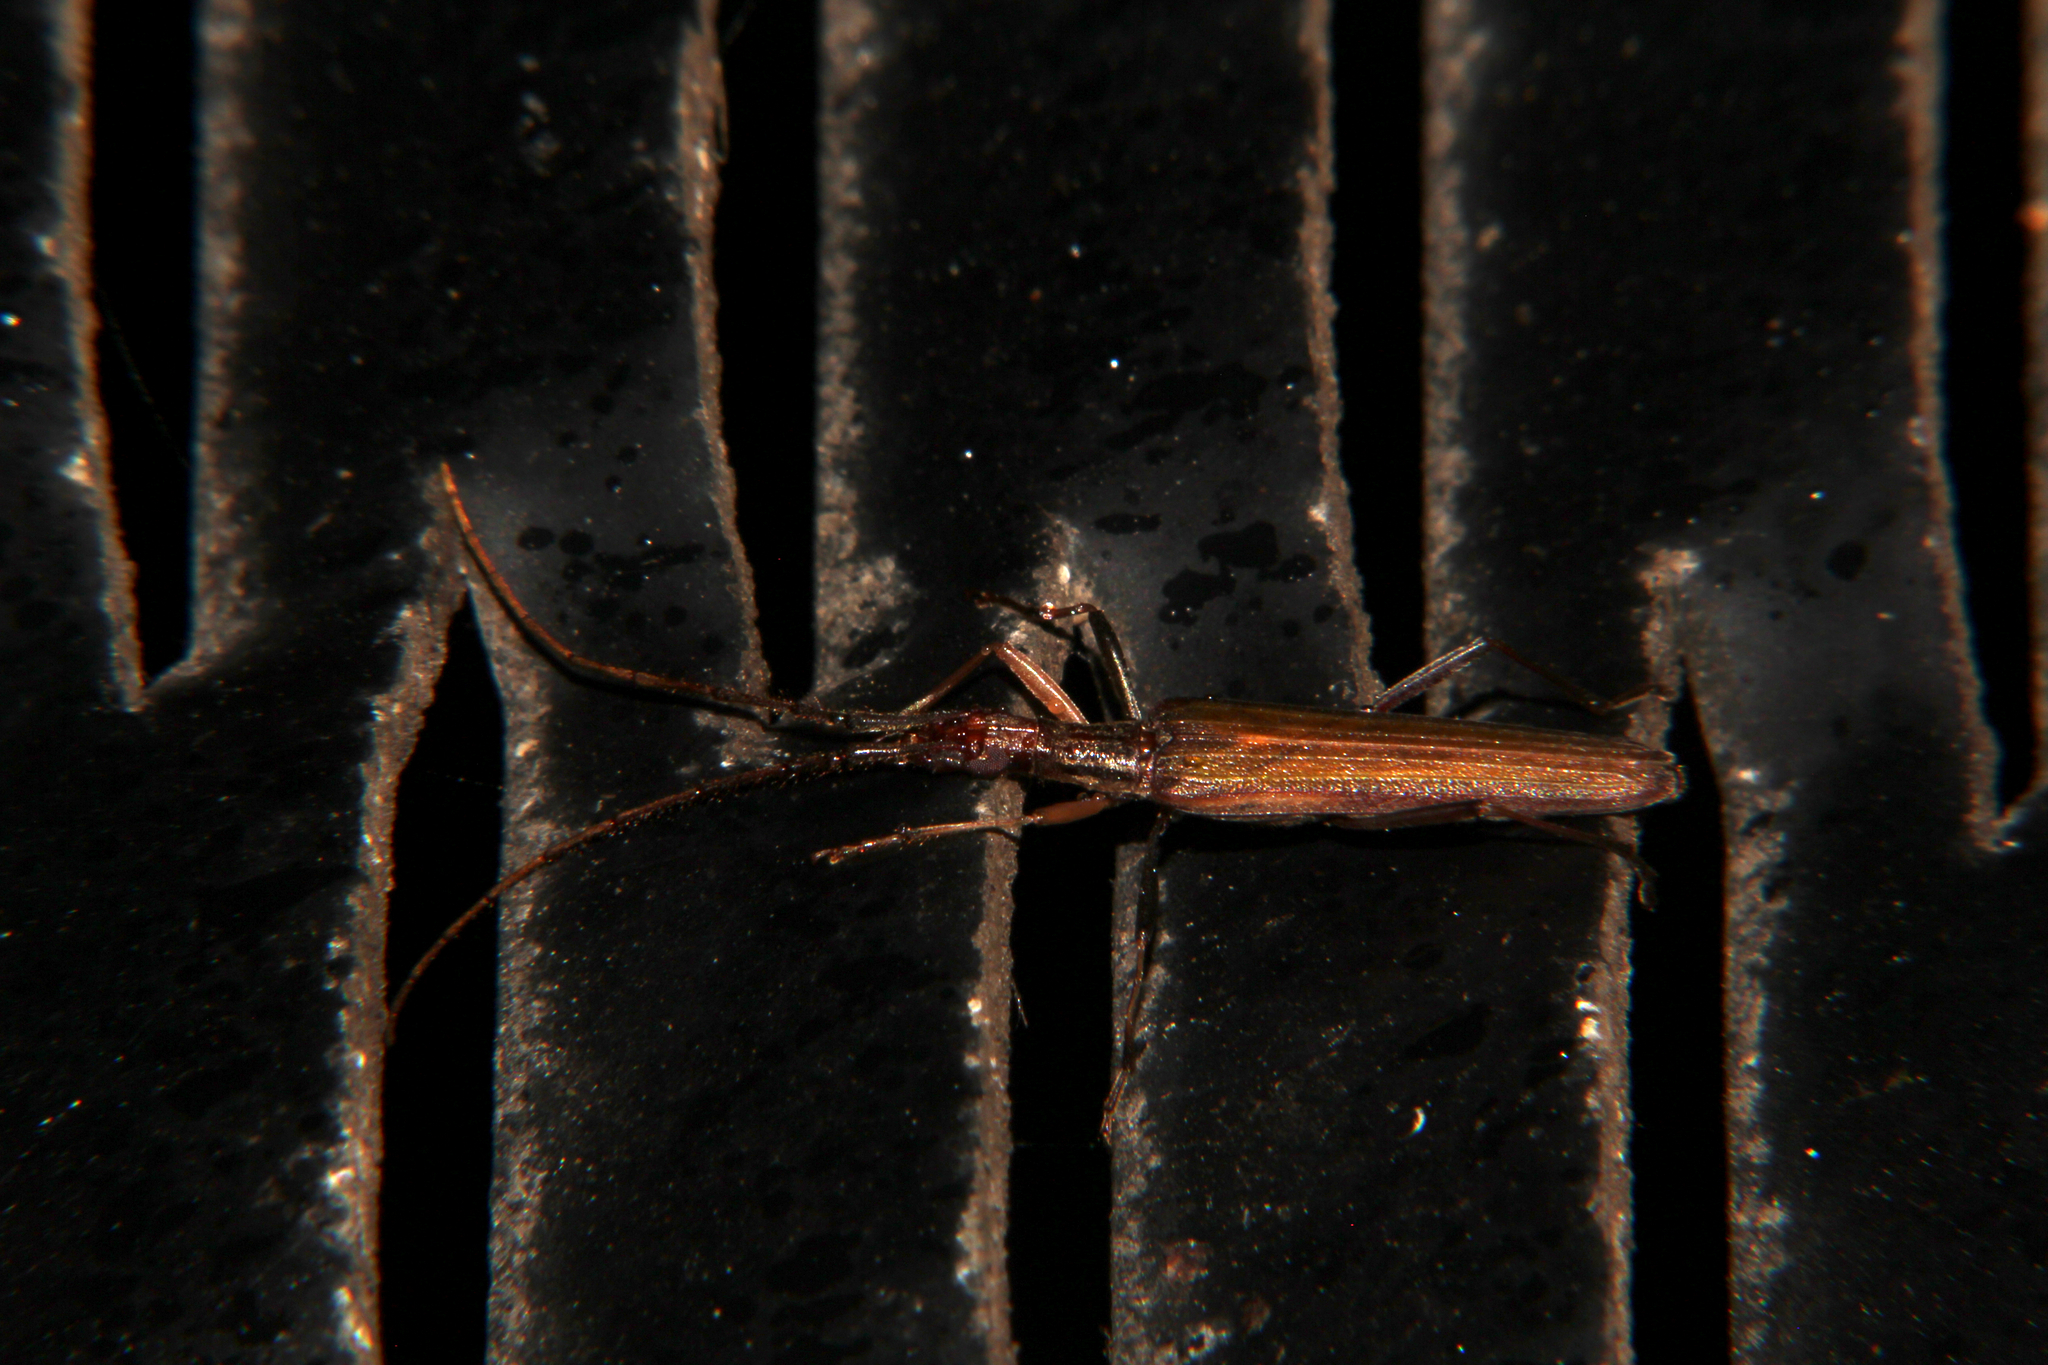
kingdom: Animalia
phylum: Arthropoda
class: Insecta
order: Coleoptera
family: Cerambycidae
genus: Stenopotes
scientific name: Stenopotes pallidus
